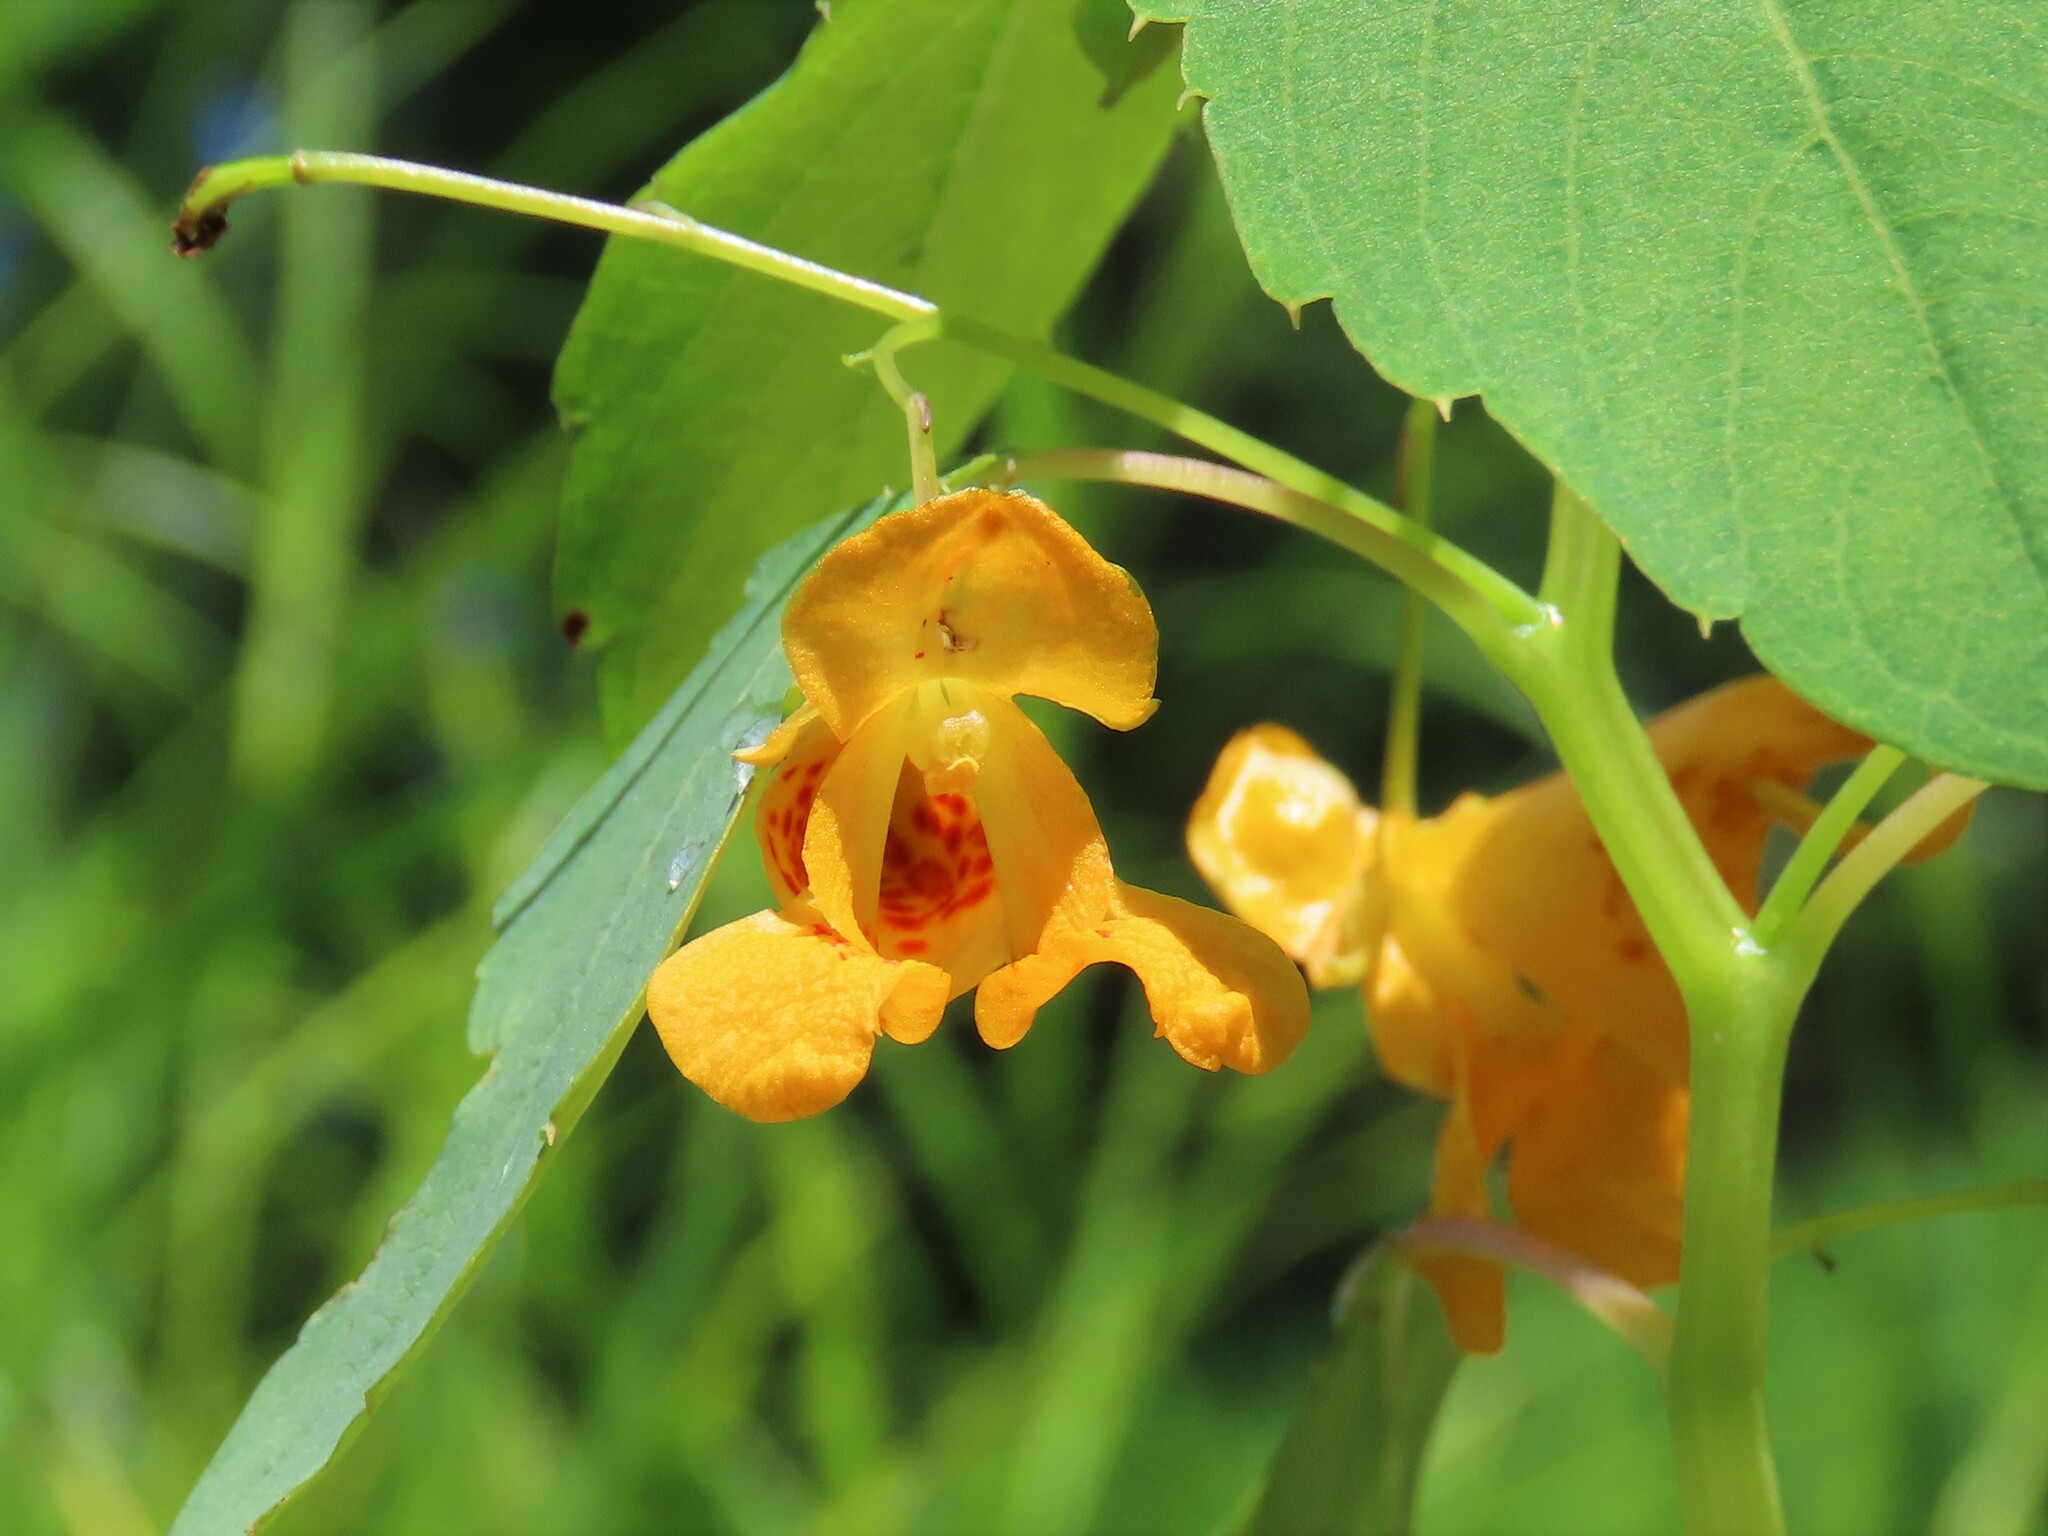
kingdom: Plantae
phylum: Tracheophyta
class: Magnoliopsida
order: Ericales
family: Balsaminaceae
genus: Impatiens
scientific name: Impatiens capensis
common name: Orange balsam
